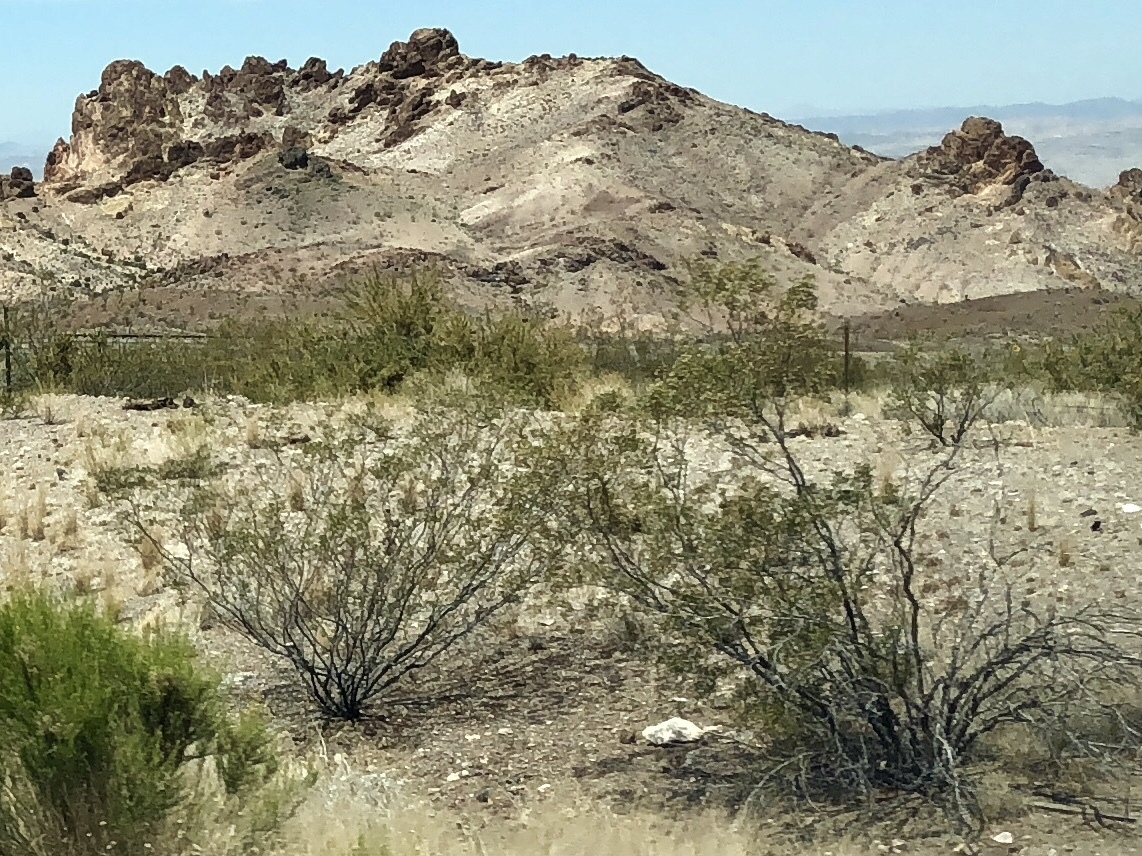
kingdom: Plantae
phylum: Tracheophyta
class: Magnoliopsida
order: Zygophyllales
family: Zygophyllaceae
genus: Larrea
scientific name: Larrea tridentata
